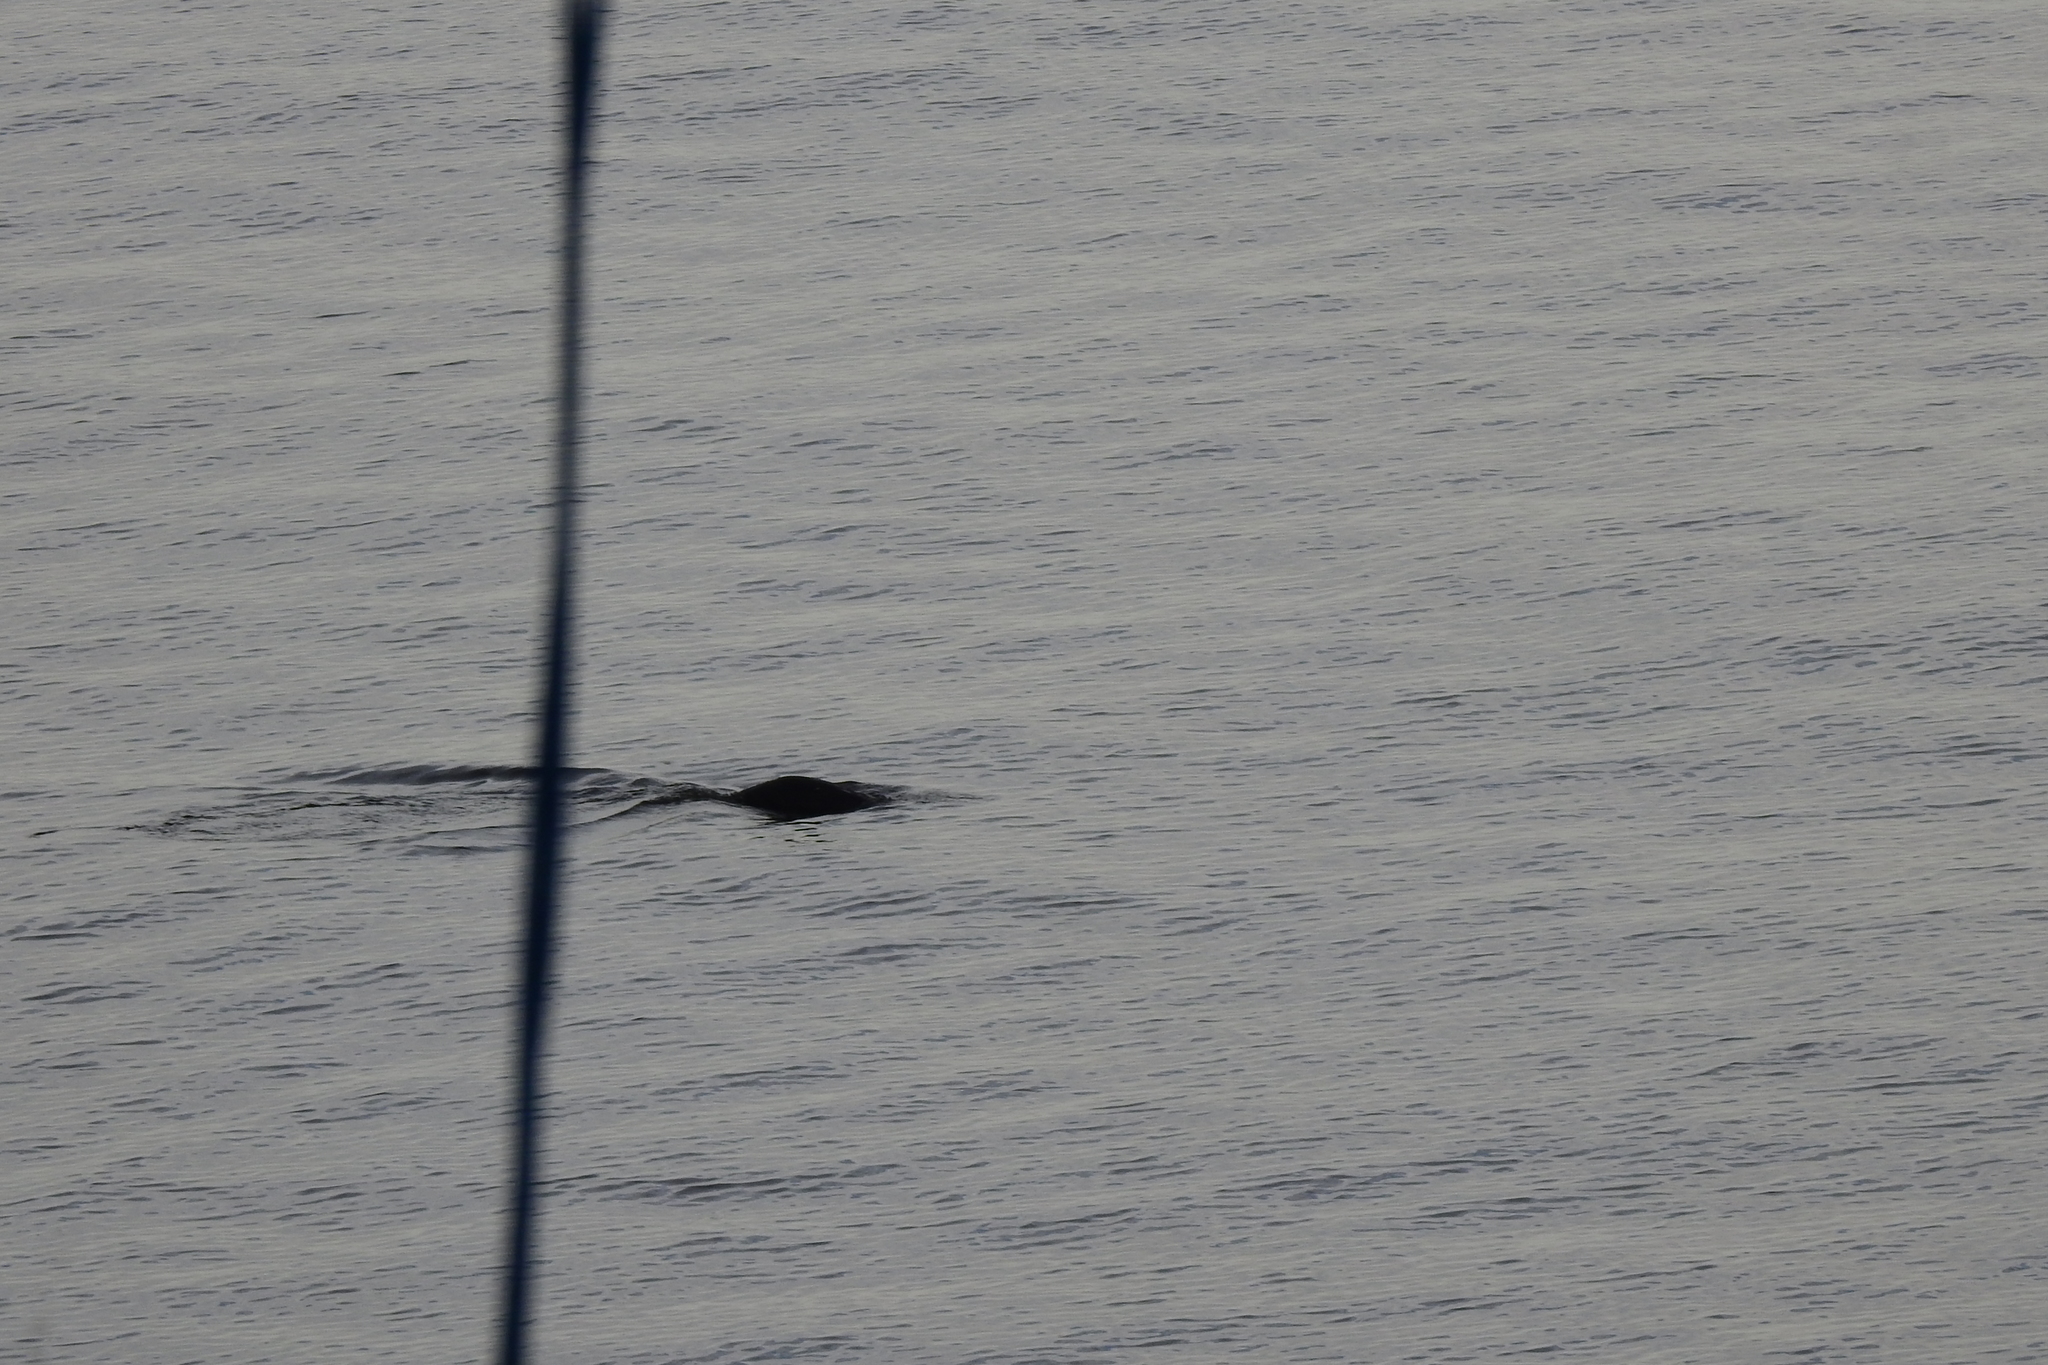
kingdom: Animalia
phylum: Chordata
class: Mammalia
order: Carnivora
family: Mustelidae
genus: Amblonyx
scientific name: Amblonyx cinereus
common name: Oriental small-clawed otter
